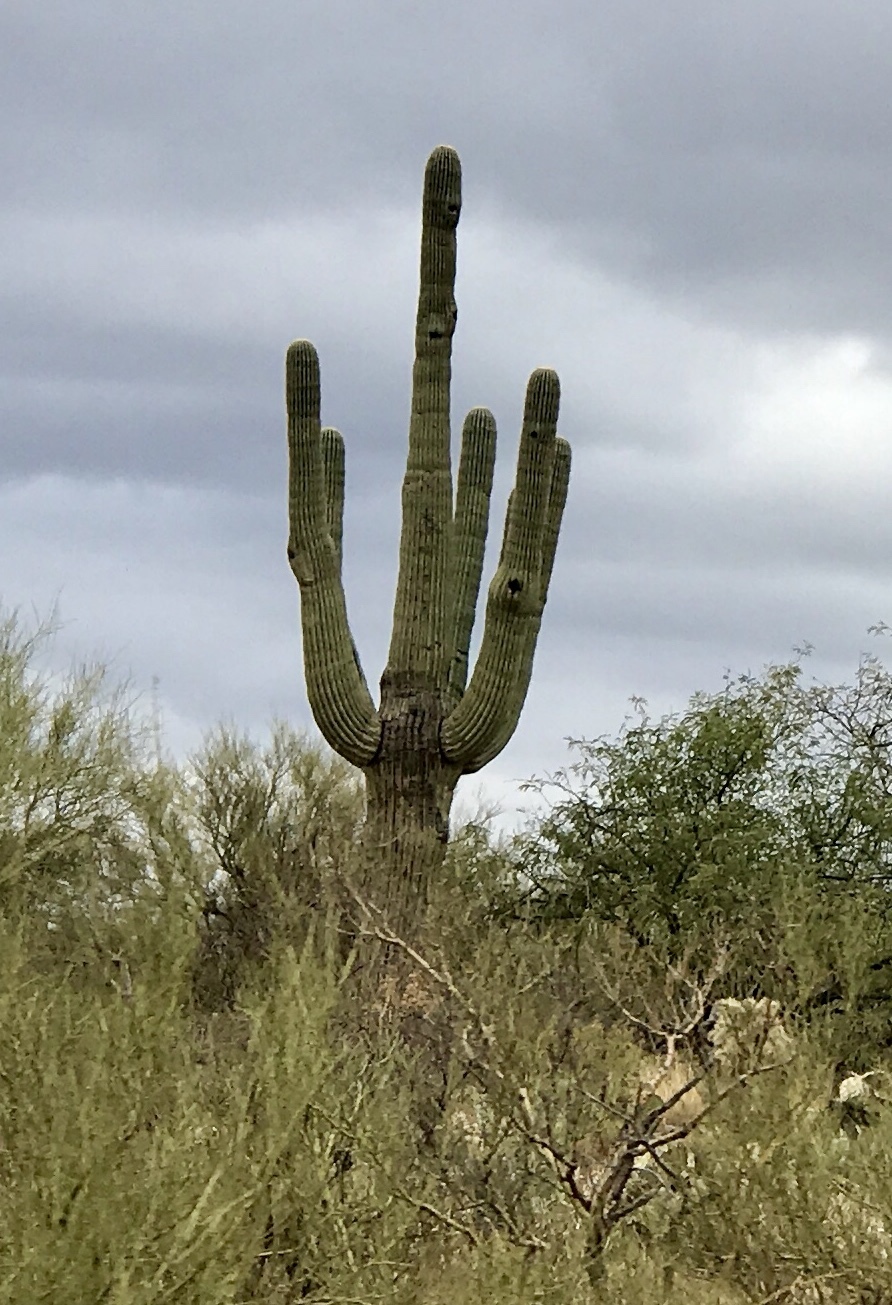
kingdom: Plantae
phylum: Tracheophyta
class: Magnoliopsida
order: Caryophyllales
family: Cactaceae
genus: Carnegiea
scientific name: Carnegiea gigantea
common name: Saguaro
